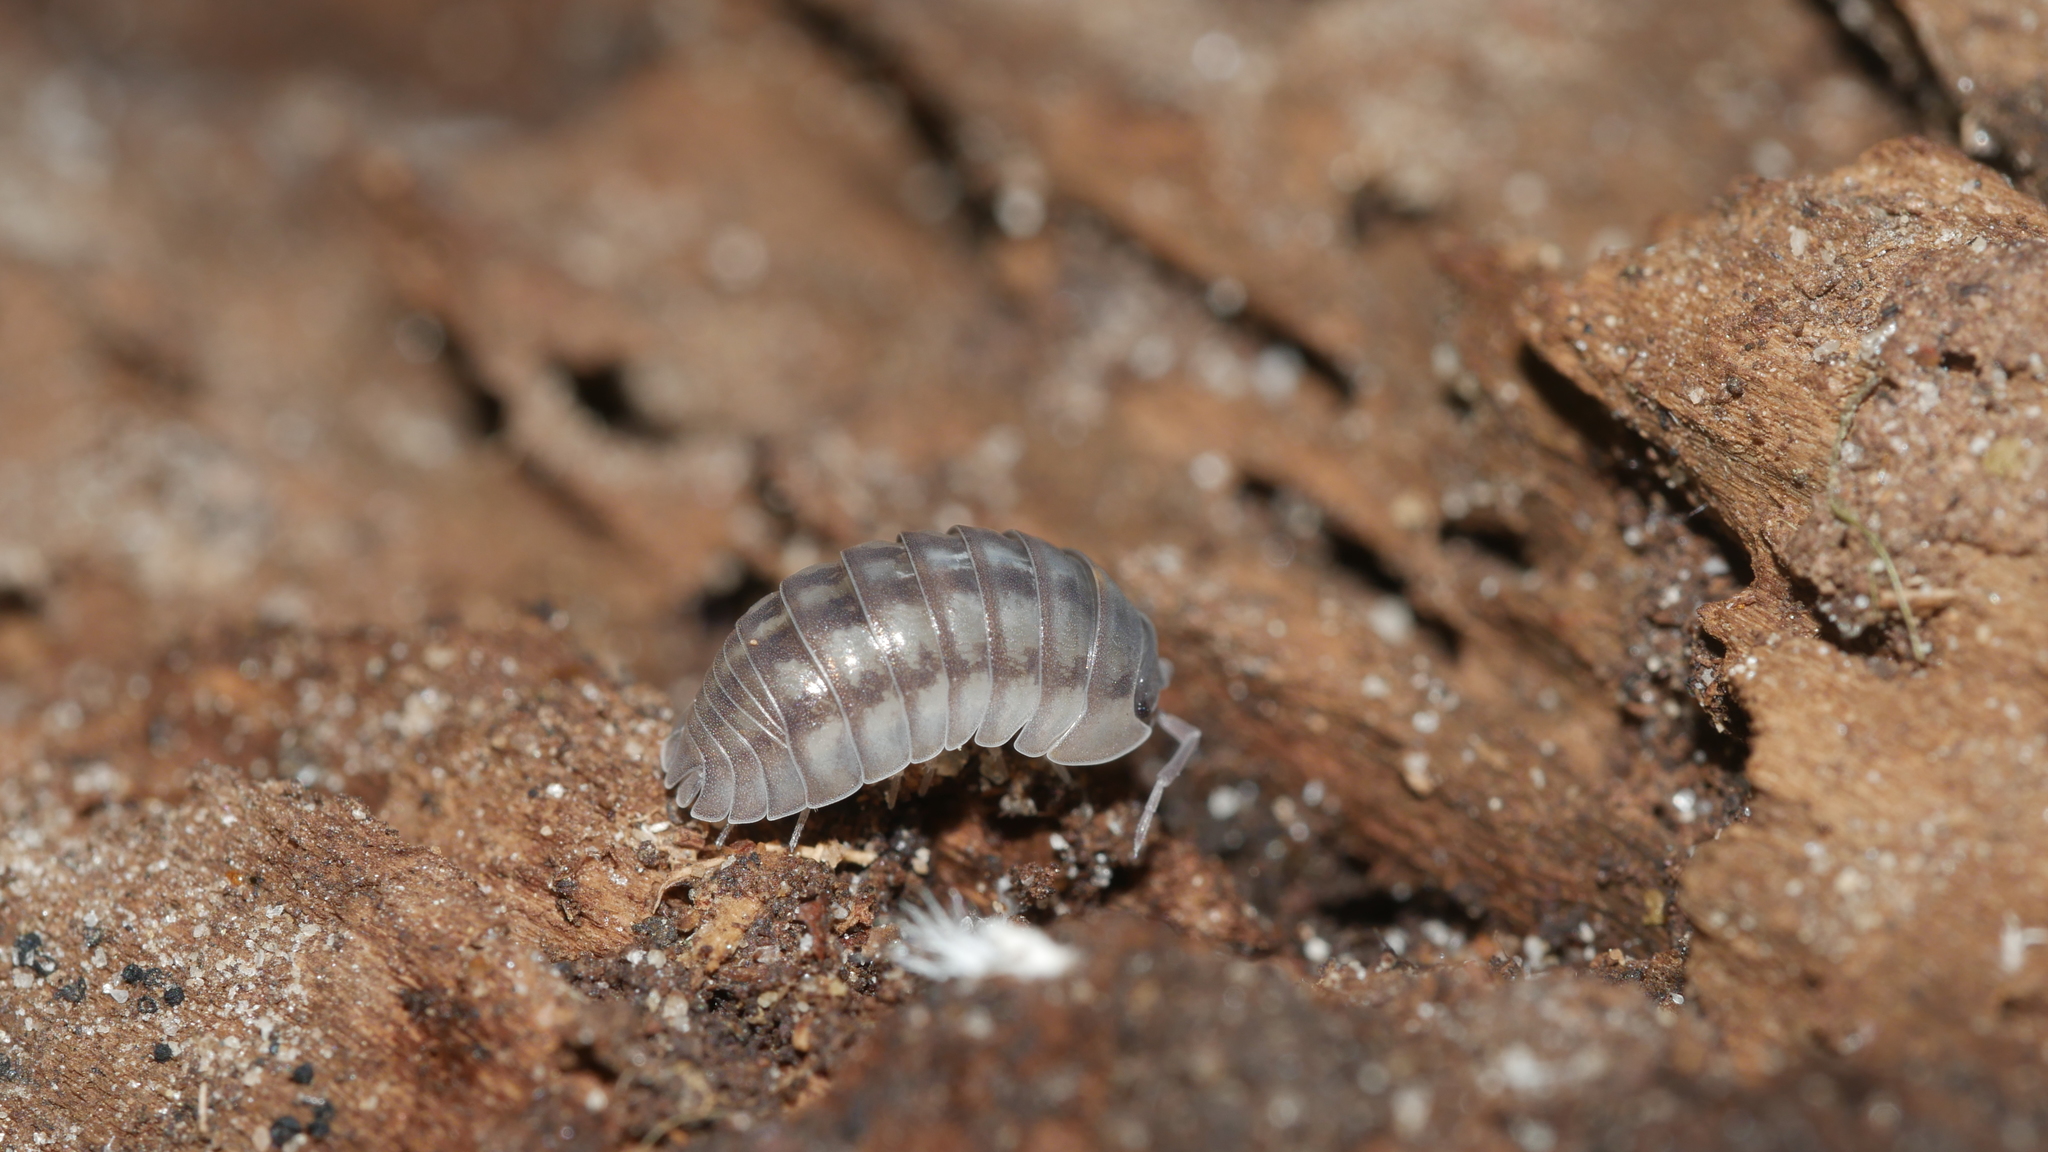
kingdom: Animalia
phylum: Arthropoda
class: Malacostraca
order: Isopoda
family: Armadillidiidae
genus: Armadillidium
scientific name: Armadillidium nasatum
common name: Isopod
